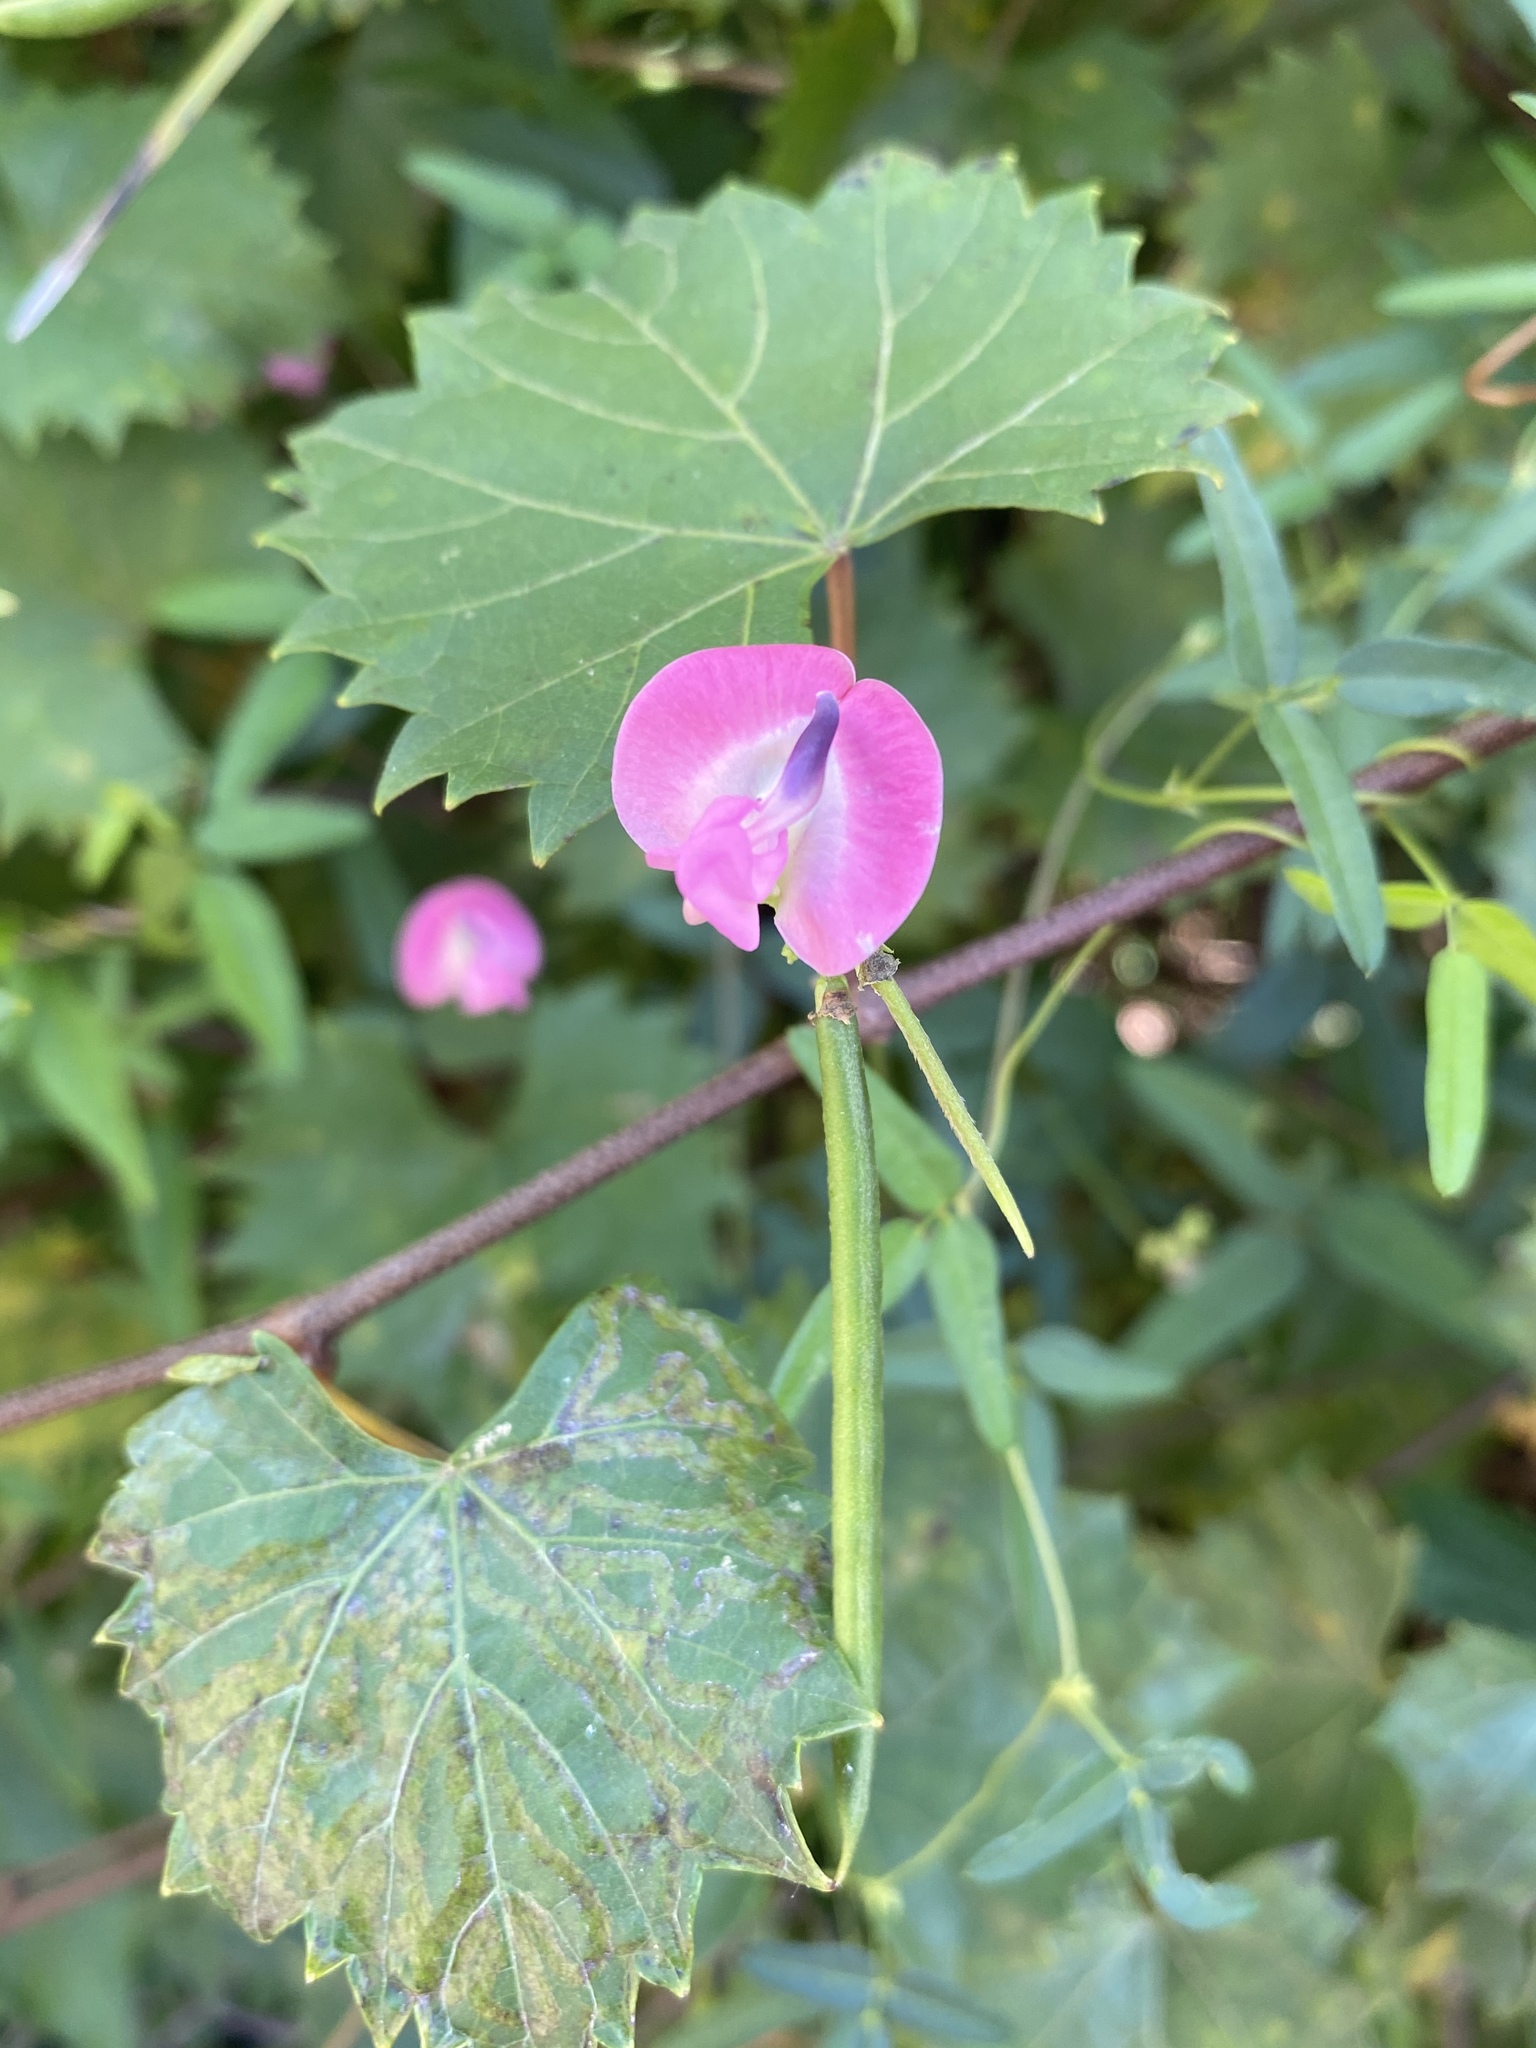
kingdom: Plantae
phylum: Tracheophyta
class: Magnoliopsida
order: Fabales
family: Fabaceae
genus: Strophostyles
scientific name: Strophostyles umbellata
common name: Perennial wild bean
